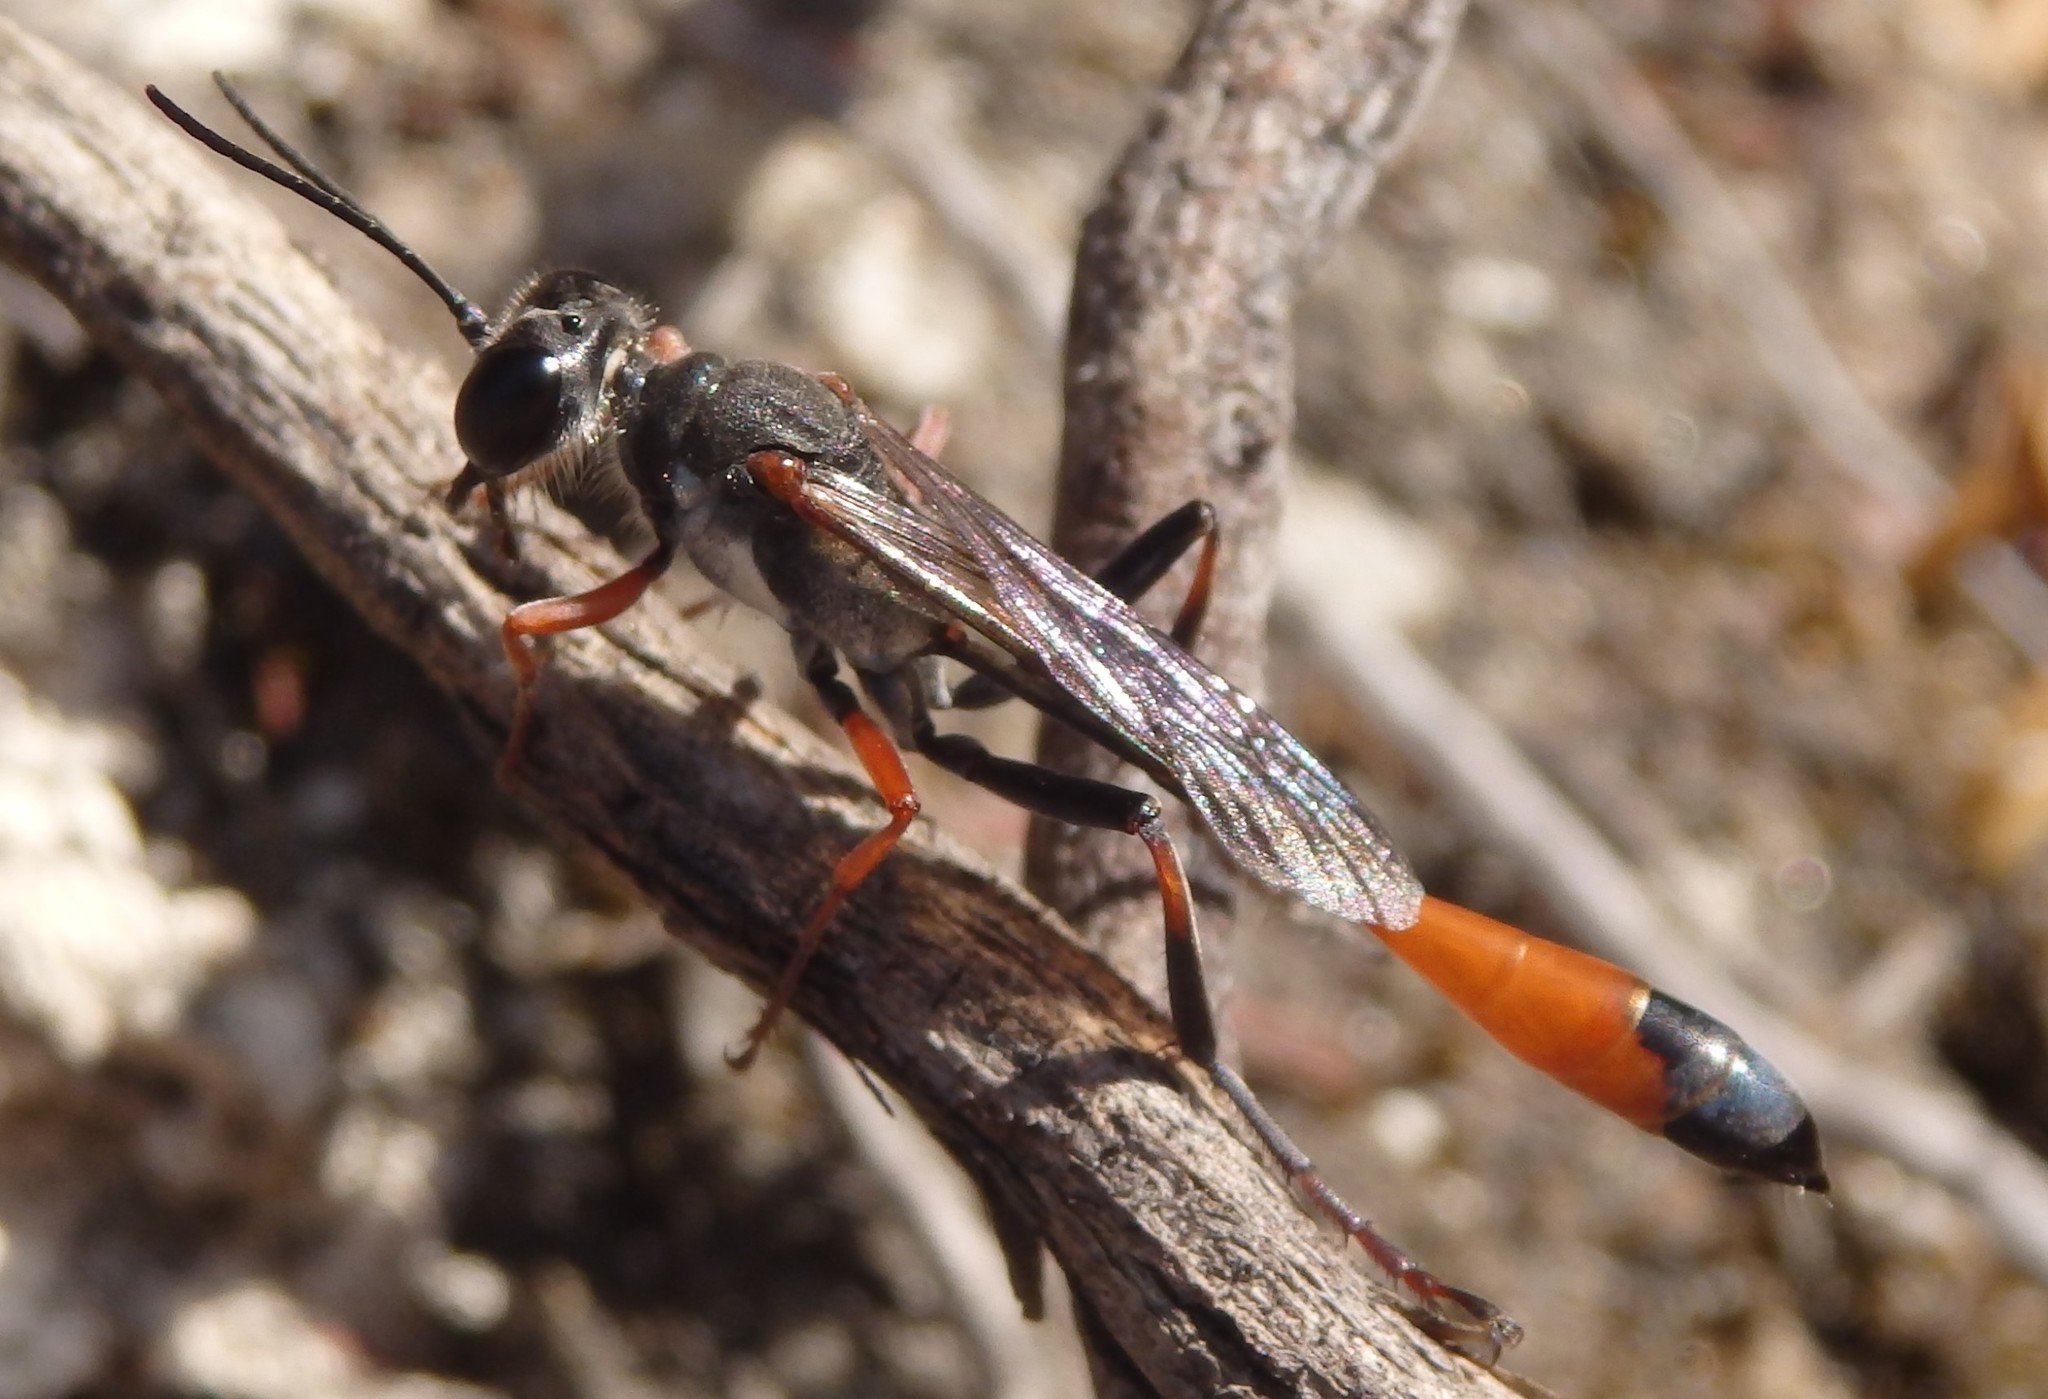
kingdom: Animalia
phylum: Arthropoda
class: Insecta
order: Hymenoptera
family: Sphecidae
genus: Ammophila
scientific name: Ammophila heydeni
